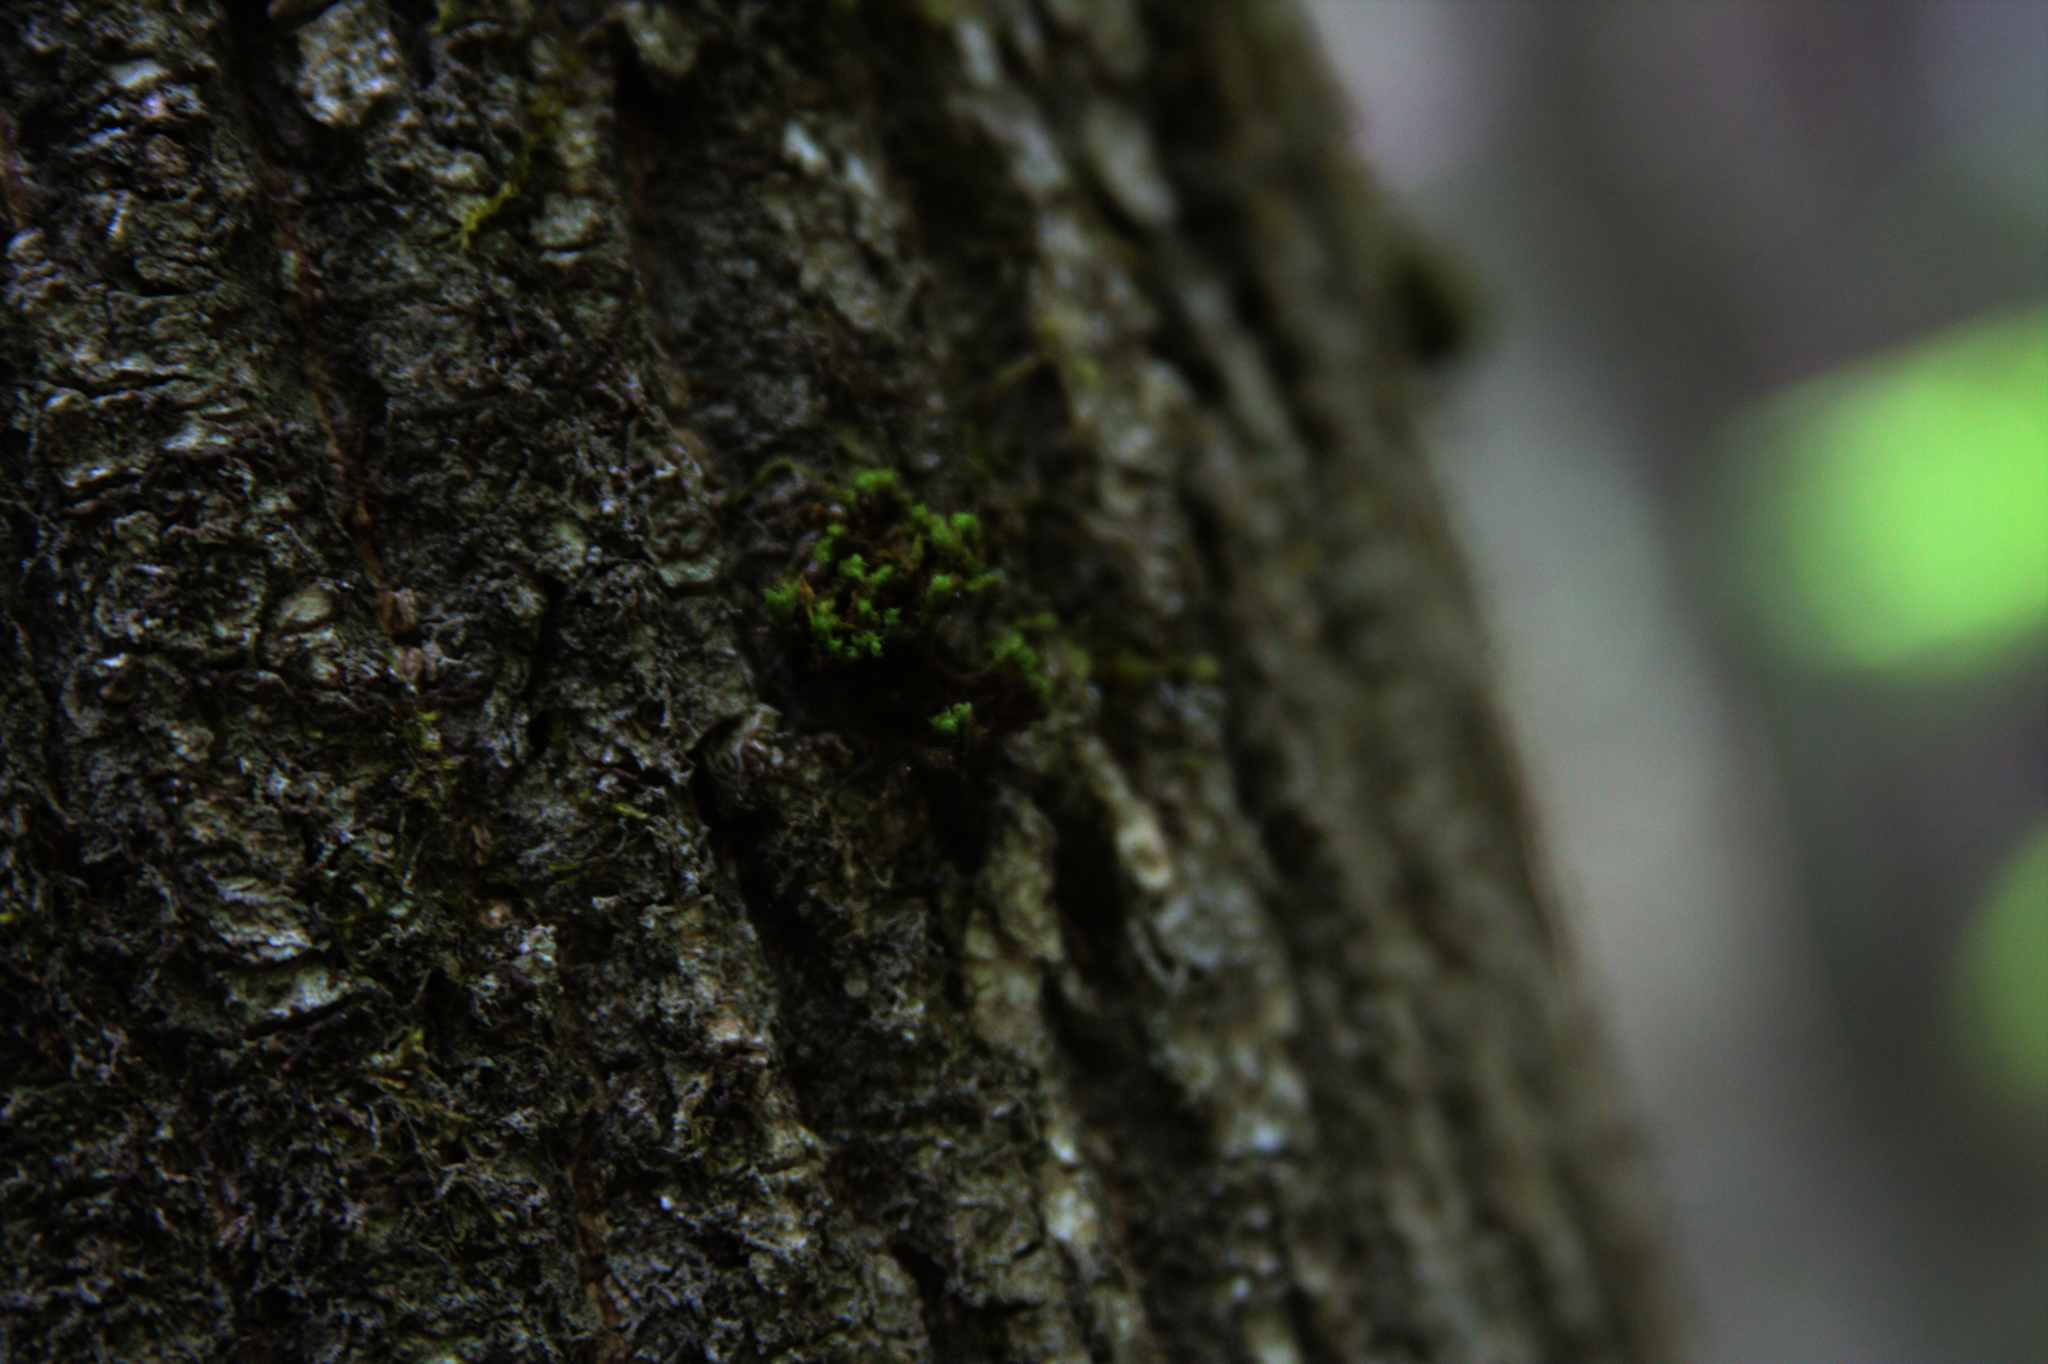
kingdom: Plantae
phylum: Bryophyta
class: Bryopsida
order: Orthotrichales
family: Orthotrichaceae
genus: Ulota
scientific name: Ulota crispa
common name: Crisped pincushion moss
